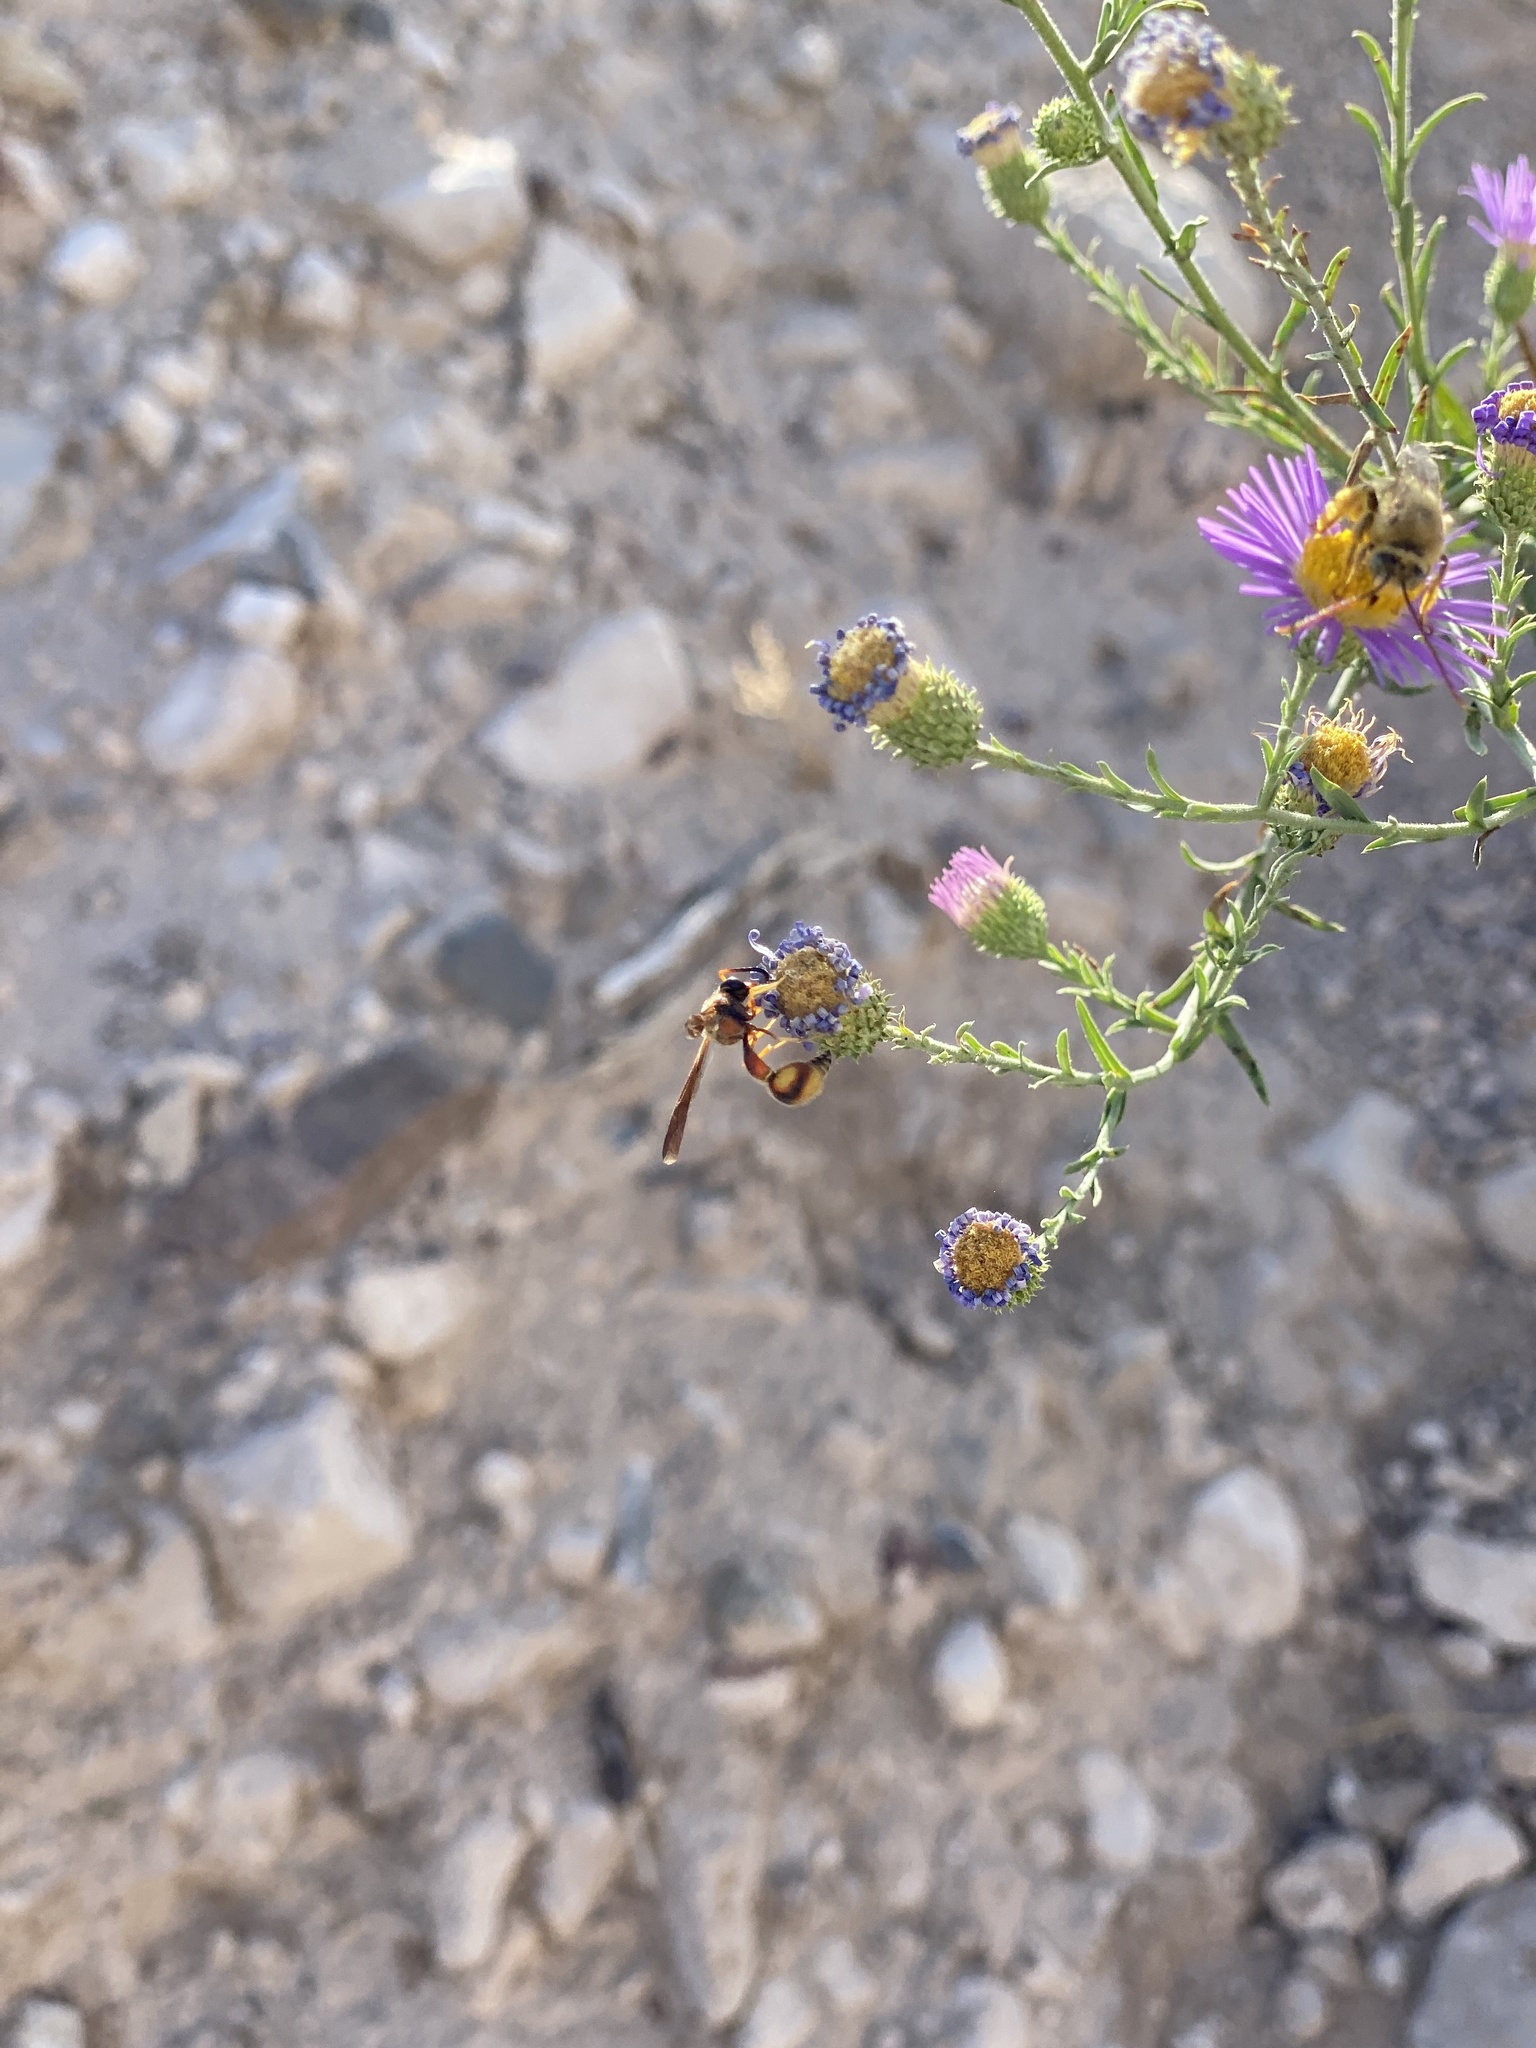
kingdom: Animalia
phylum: Arthropoda
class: Insecta
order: Hymenoptera
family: Vespidae
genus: Eumenes
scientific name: Eumenes bollii
